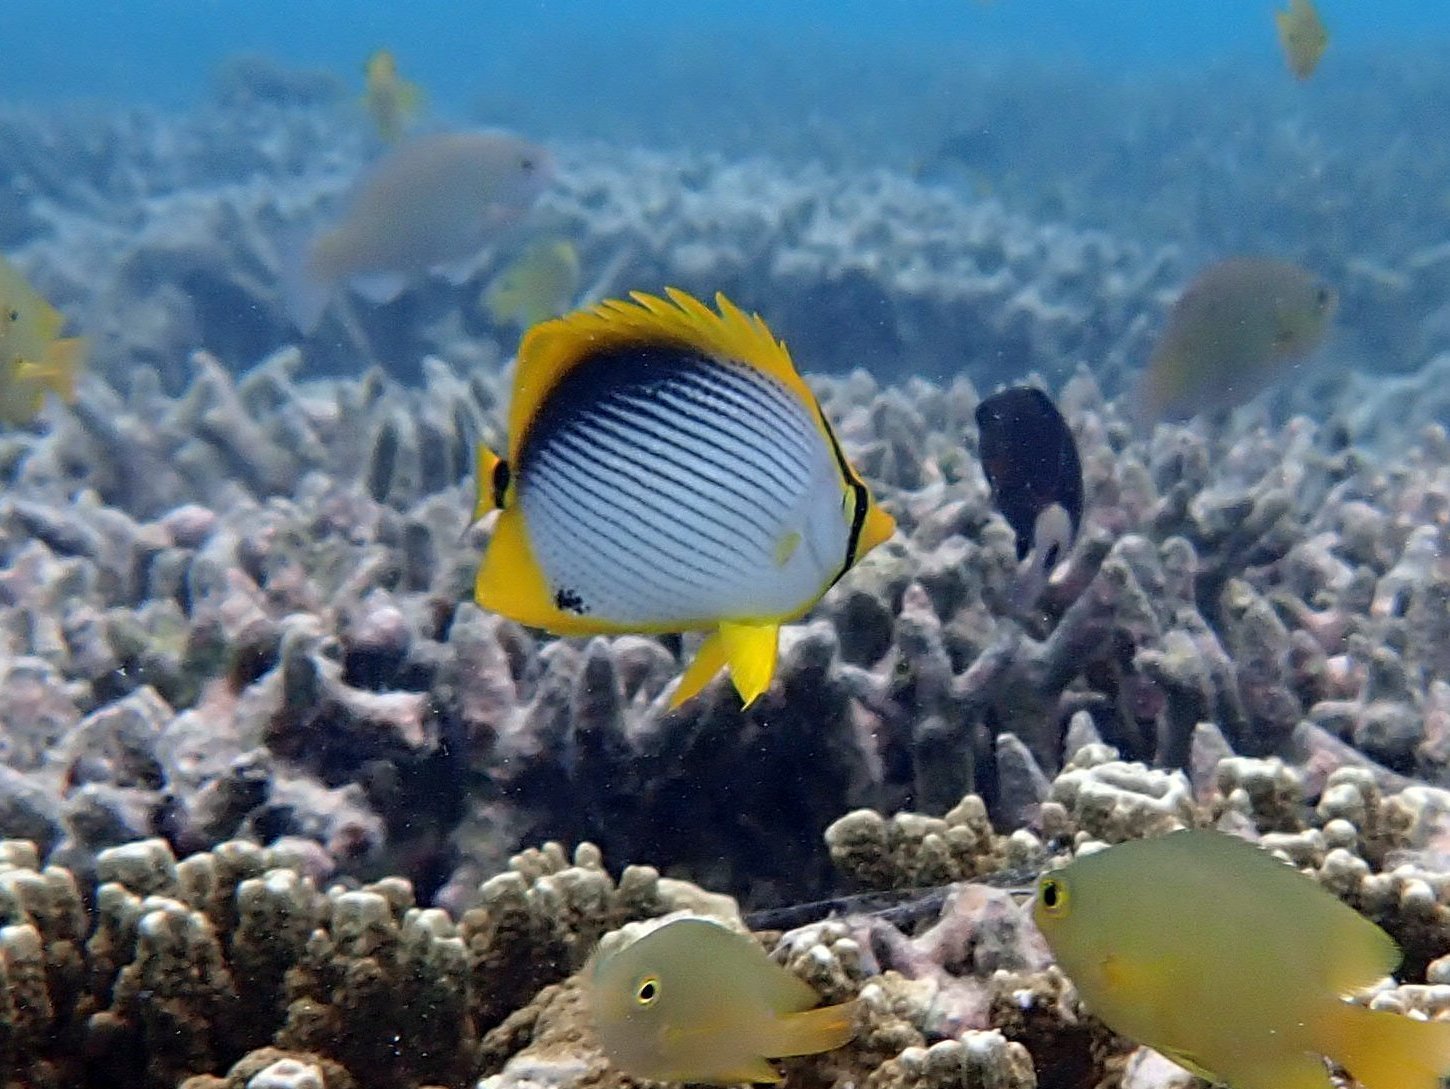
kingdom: Animalia
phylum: Chordata
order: Perciformes
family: Chaetodontidae
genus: Chaetodon
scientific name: Chaetodon melannotus
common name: Blackback butterflyfish
